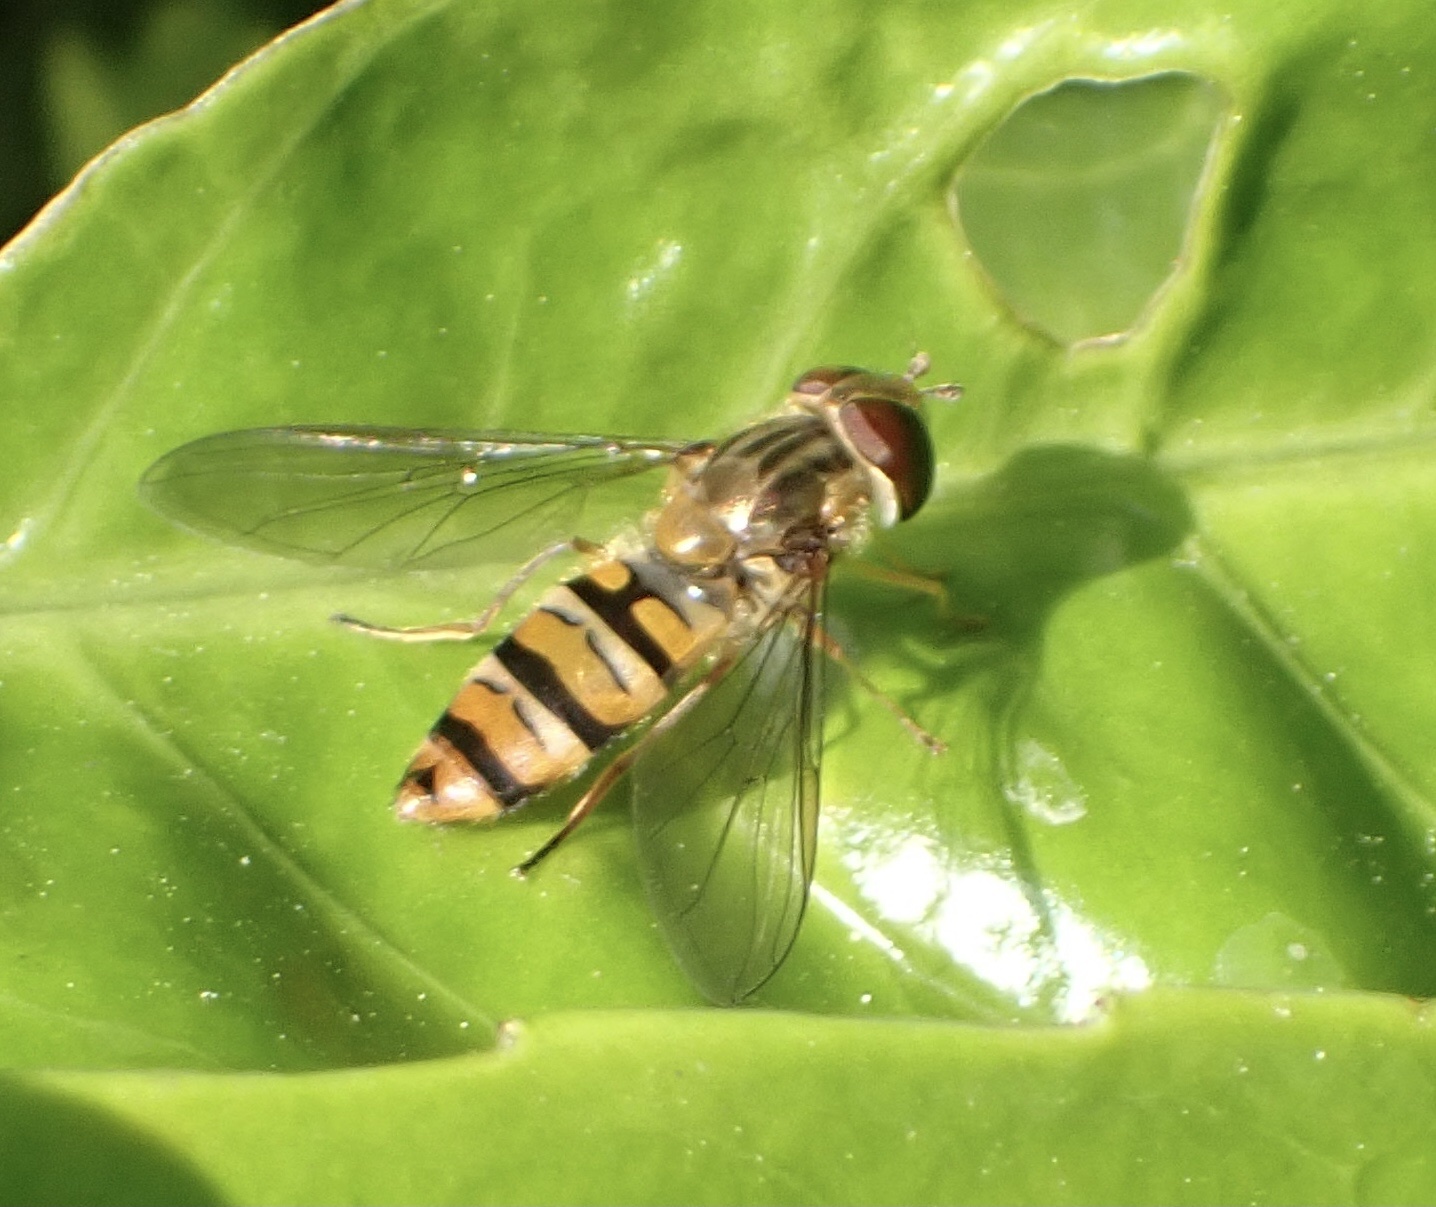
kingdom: Animalia
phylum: Arthropoda
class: Insecta
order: Diptera
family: Syrphidae
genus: Episyrphus
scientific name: Episyrphus balteatus
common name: Marmalade hoverfly
